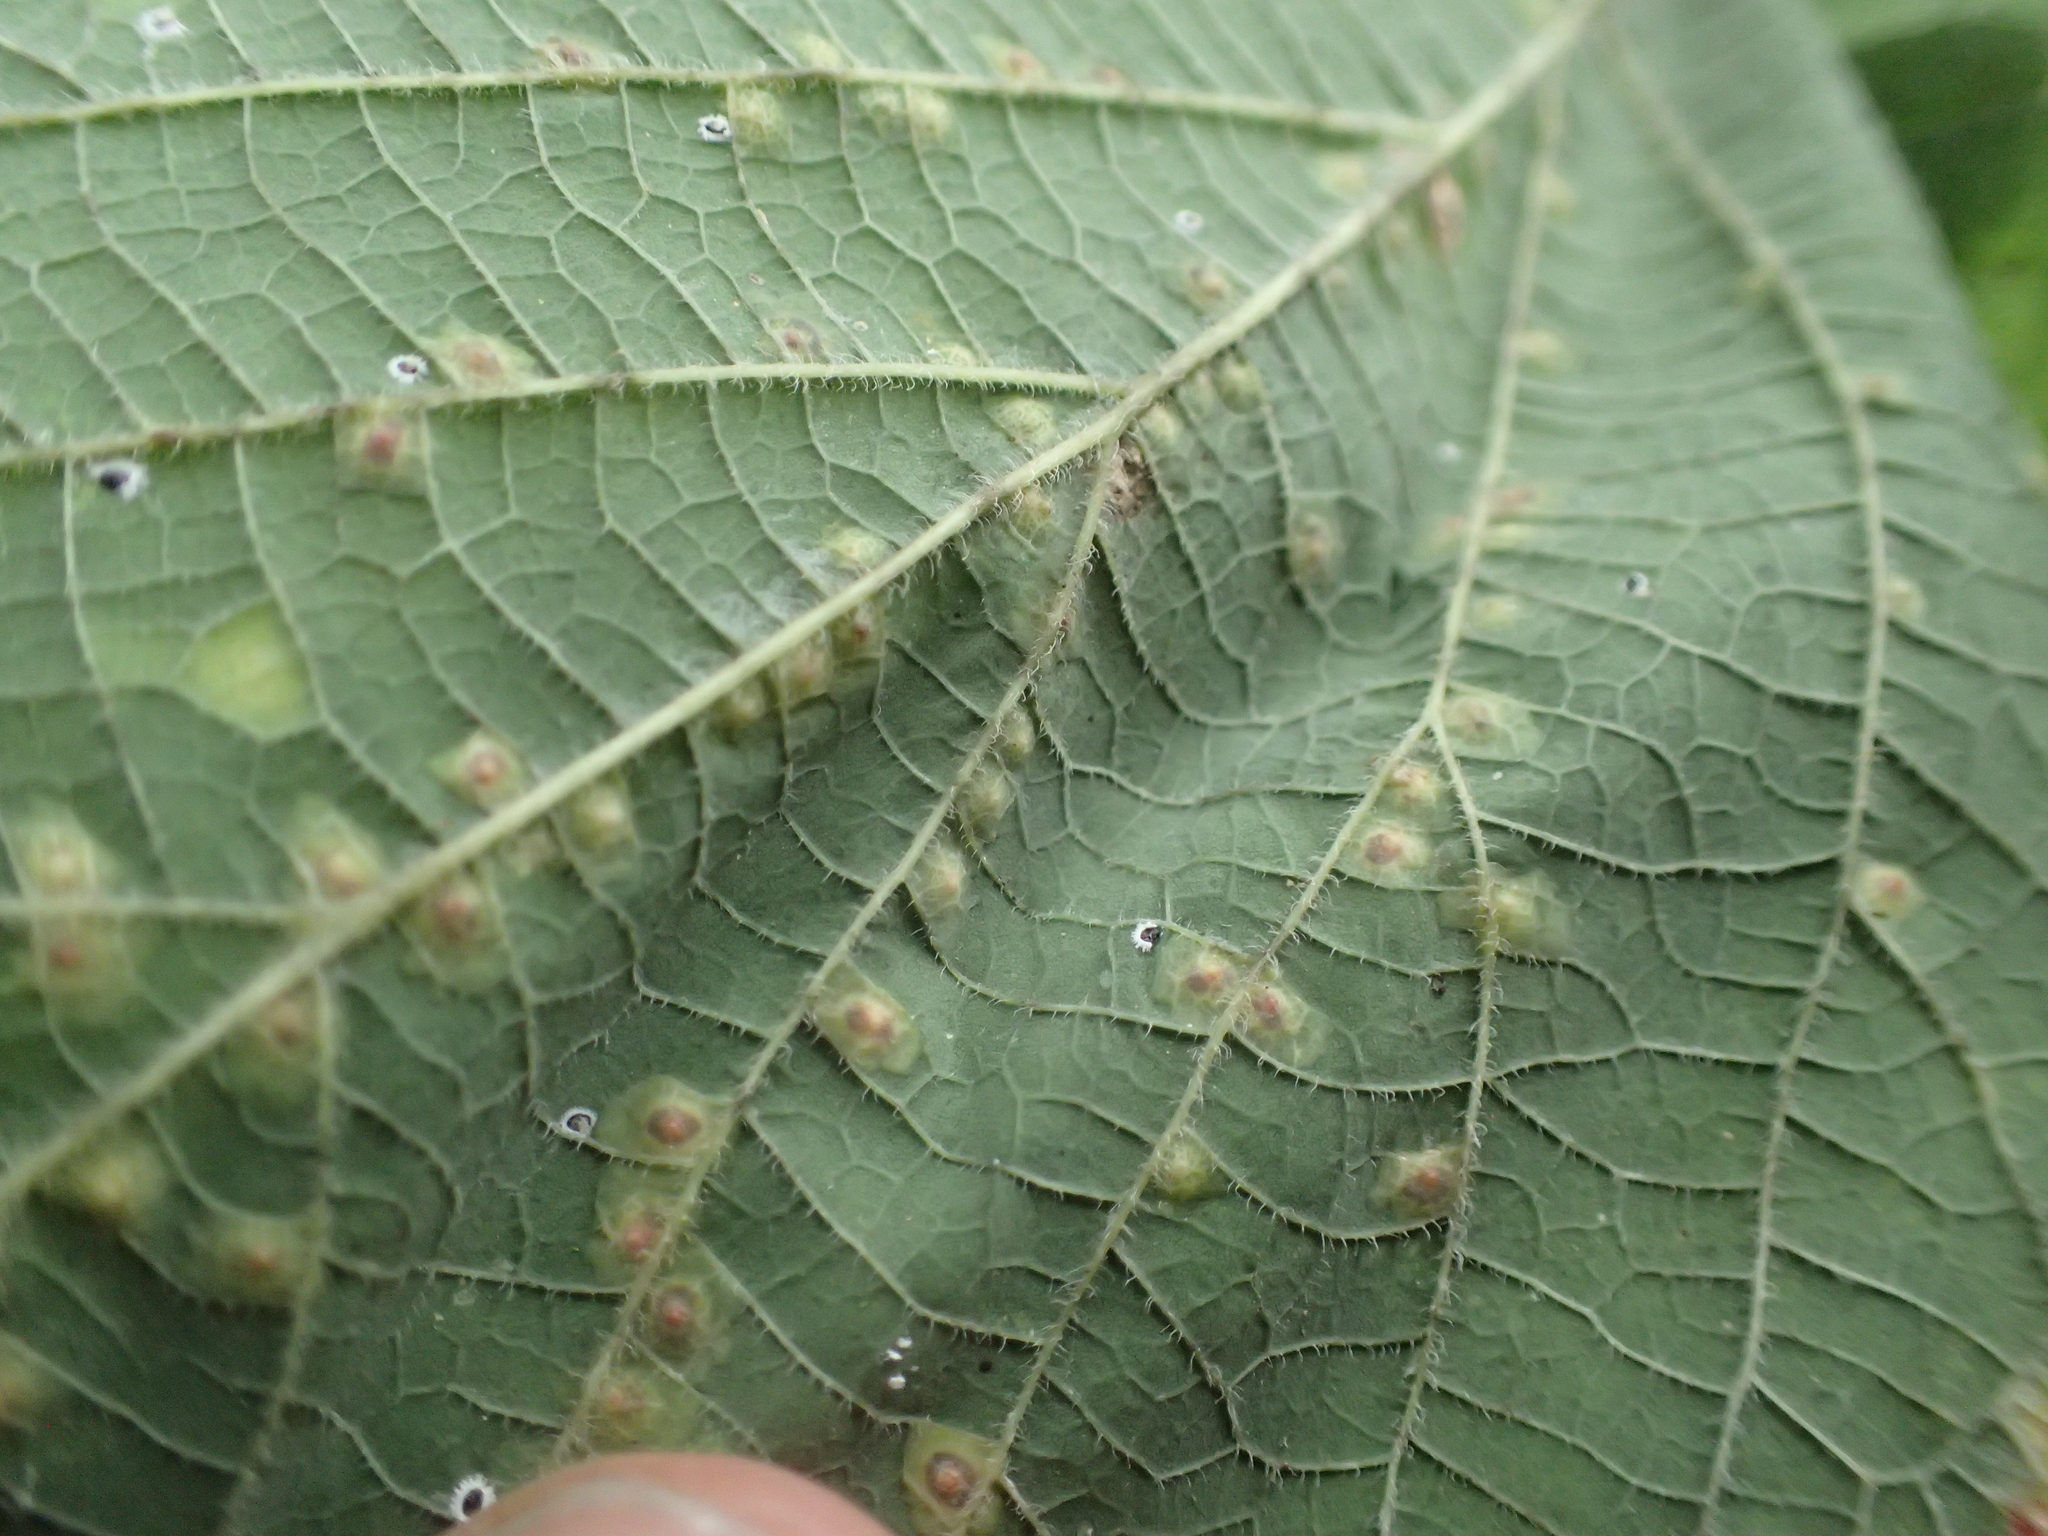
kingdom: Animalia
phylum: Arthropoda
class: Insecta
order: Hemiptera
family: Aphalaridae
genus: Pachypsylla
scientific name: Pachypsylla celtidisvesicula
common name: Hackberry blister gall psyllid
